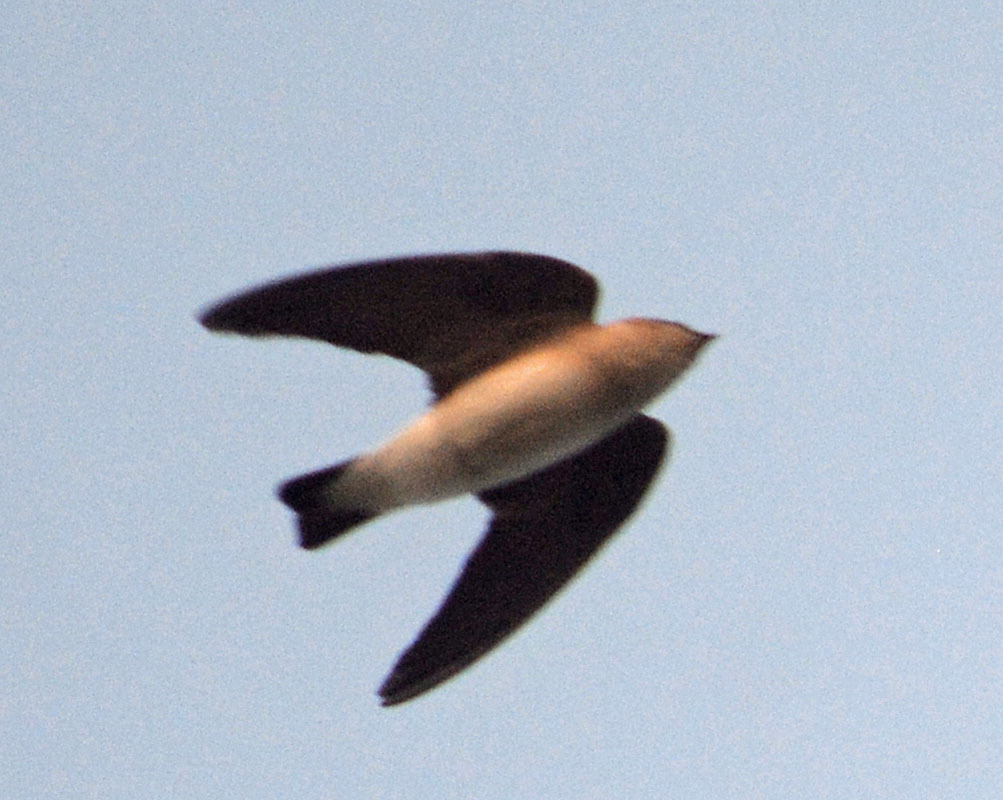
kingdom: Animalia
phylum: Chordata
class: Aves
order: Passeriformes
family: Hirundinidae
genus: Stelgidopteryx
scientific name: Stelgidopteryx serripennis
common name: Northern rough-winged swallow
